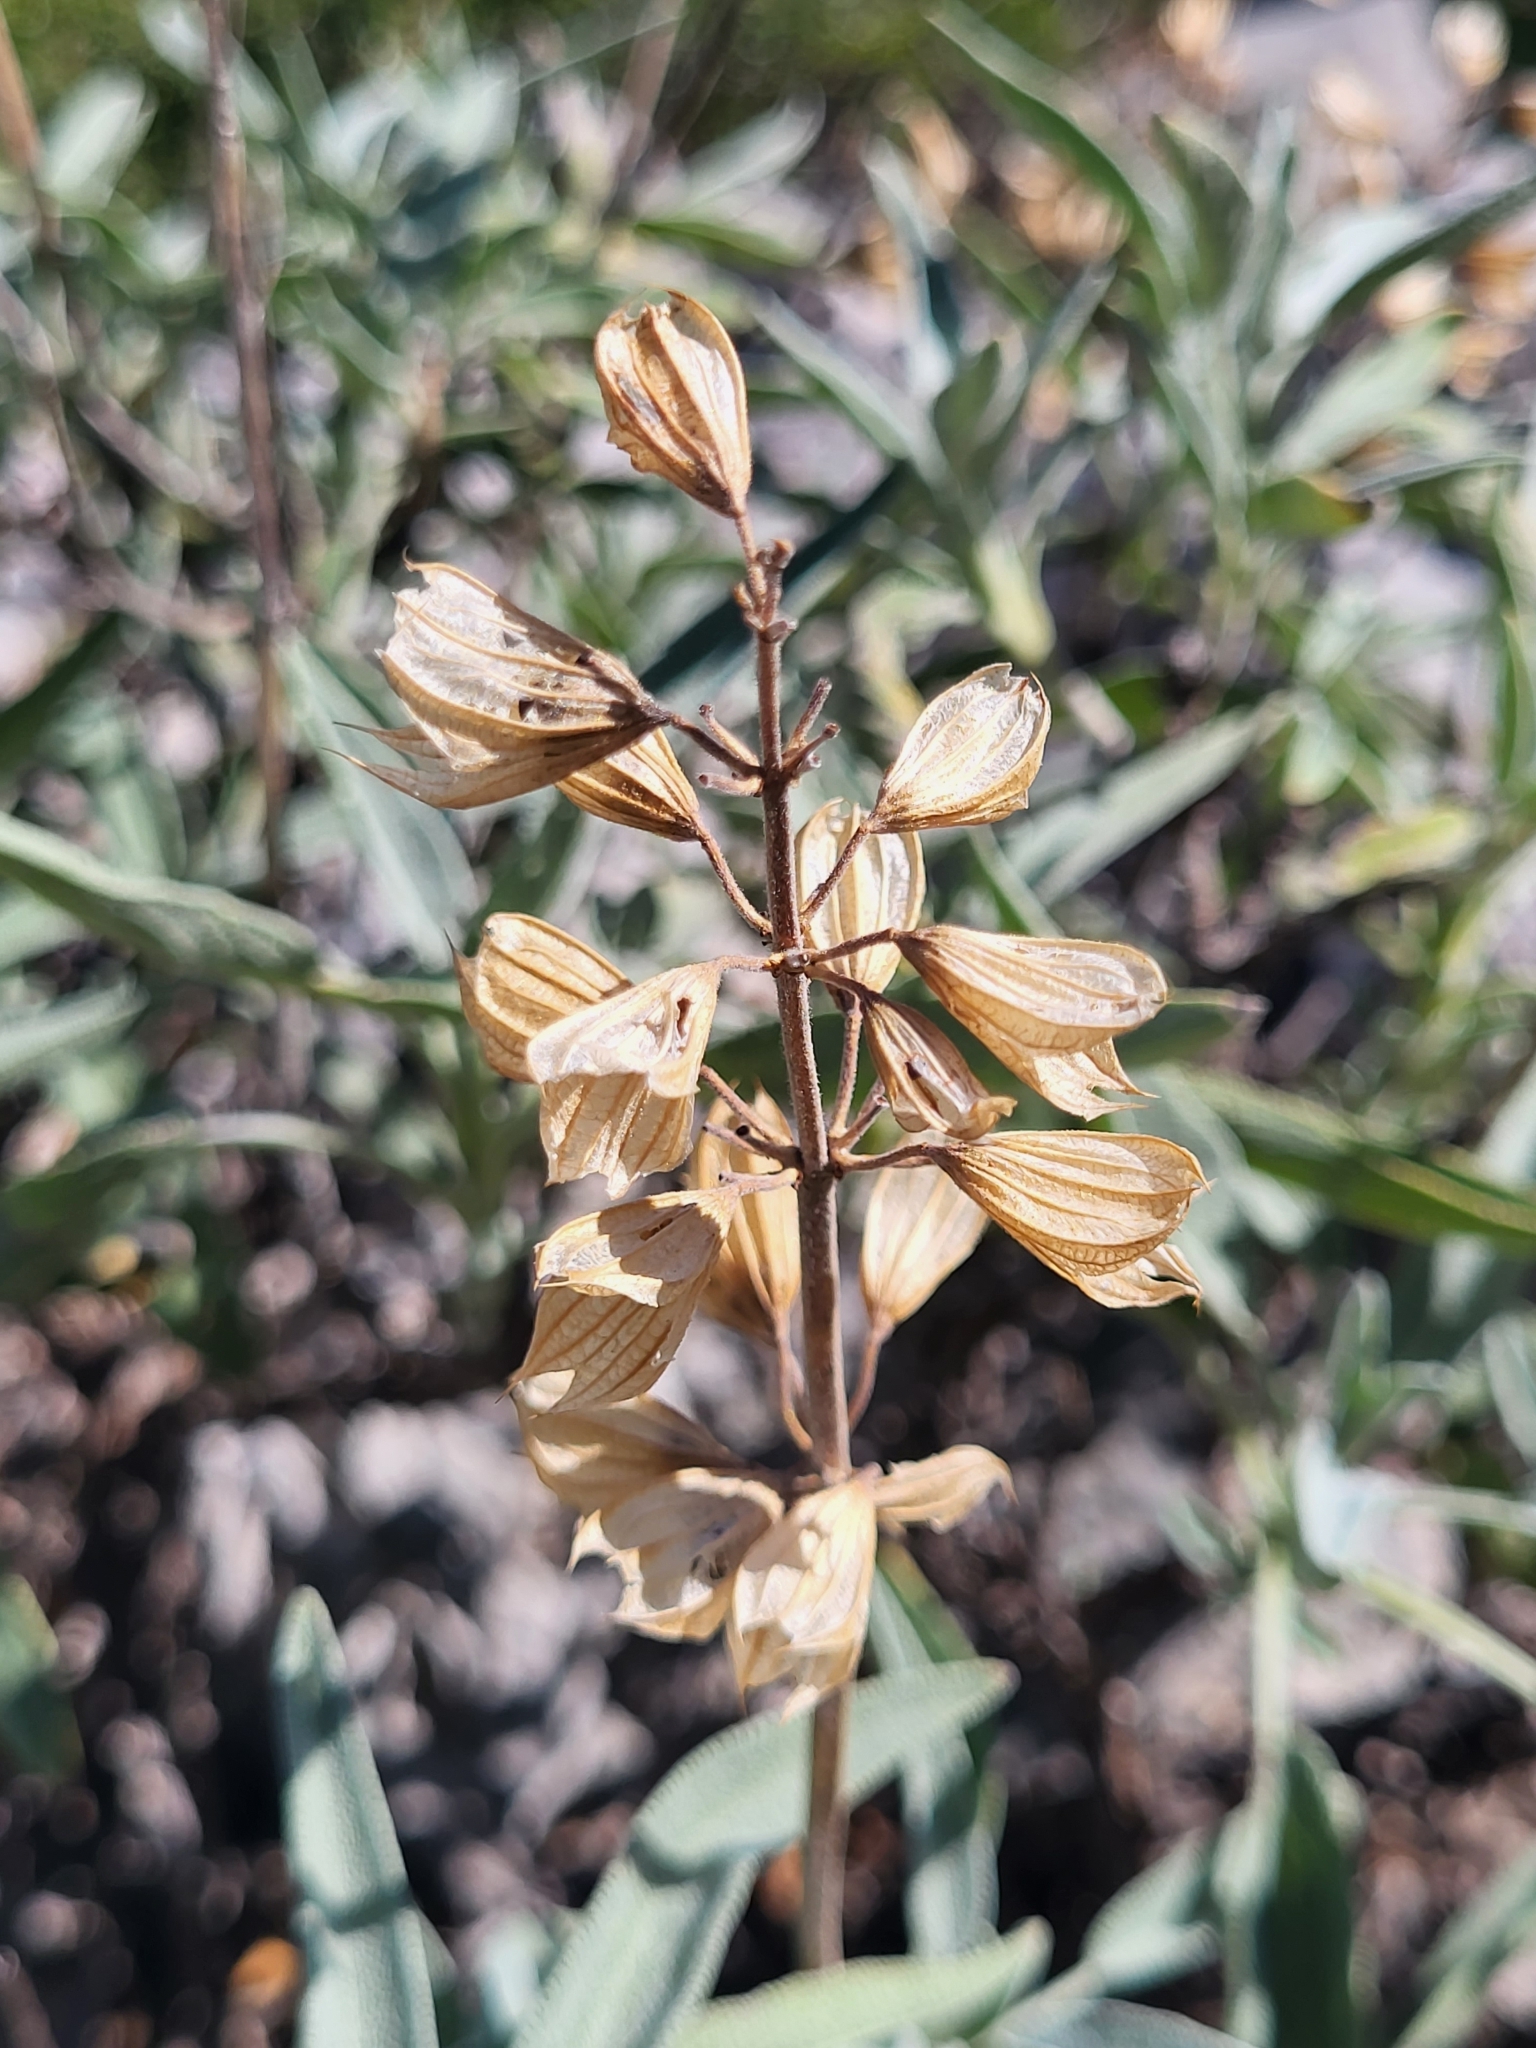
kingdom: Plantae
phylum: Tracheophyta
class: Magnoliopsida
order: Lamiales
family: Lamiaceae
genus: Salvia
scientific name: Salvia officinalis
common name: Sage
